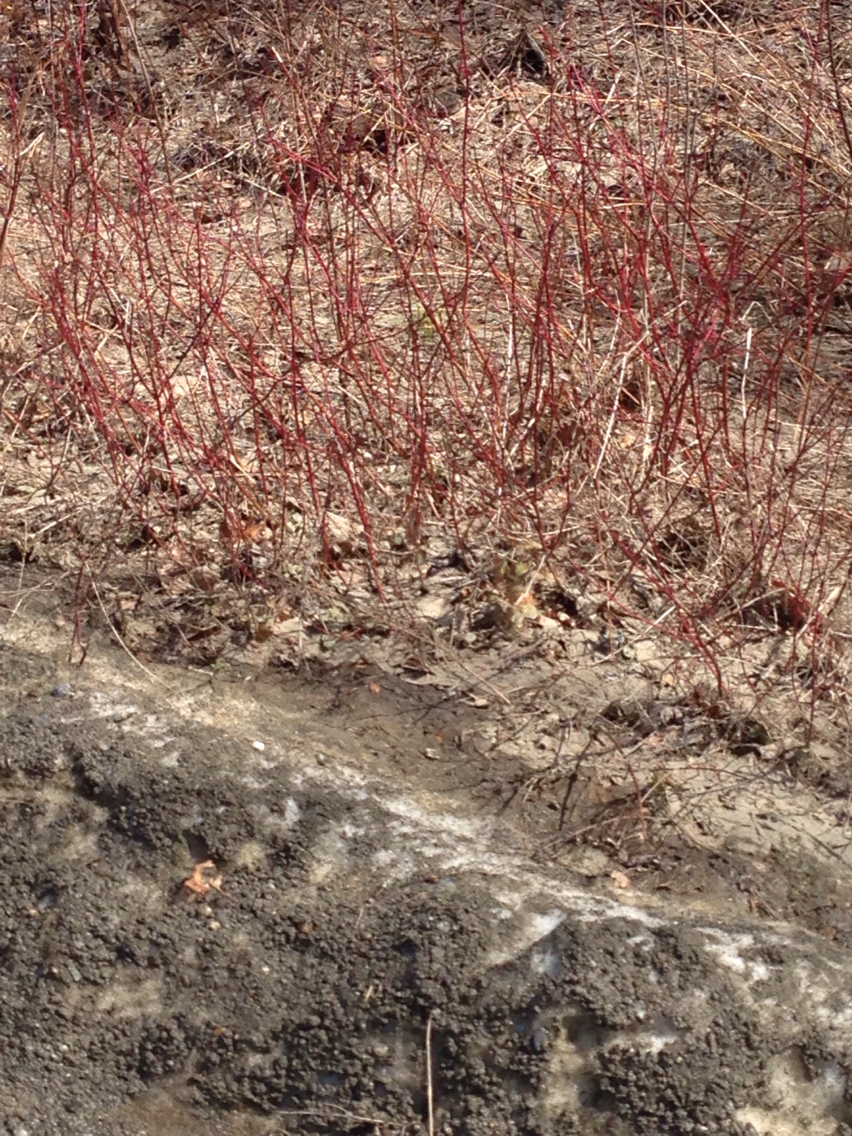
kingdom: Plantae
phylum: Tracheophyta
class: Magnoliopsida
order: Cornales
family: Cornaceae
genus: Cornus
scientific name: Cornus sericea
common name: Red-osier dogwood
